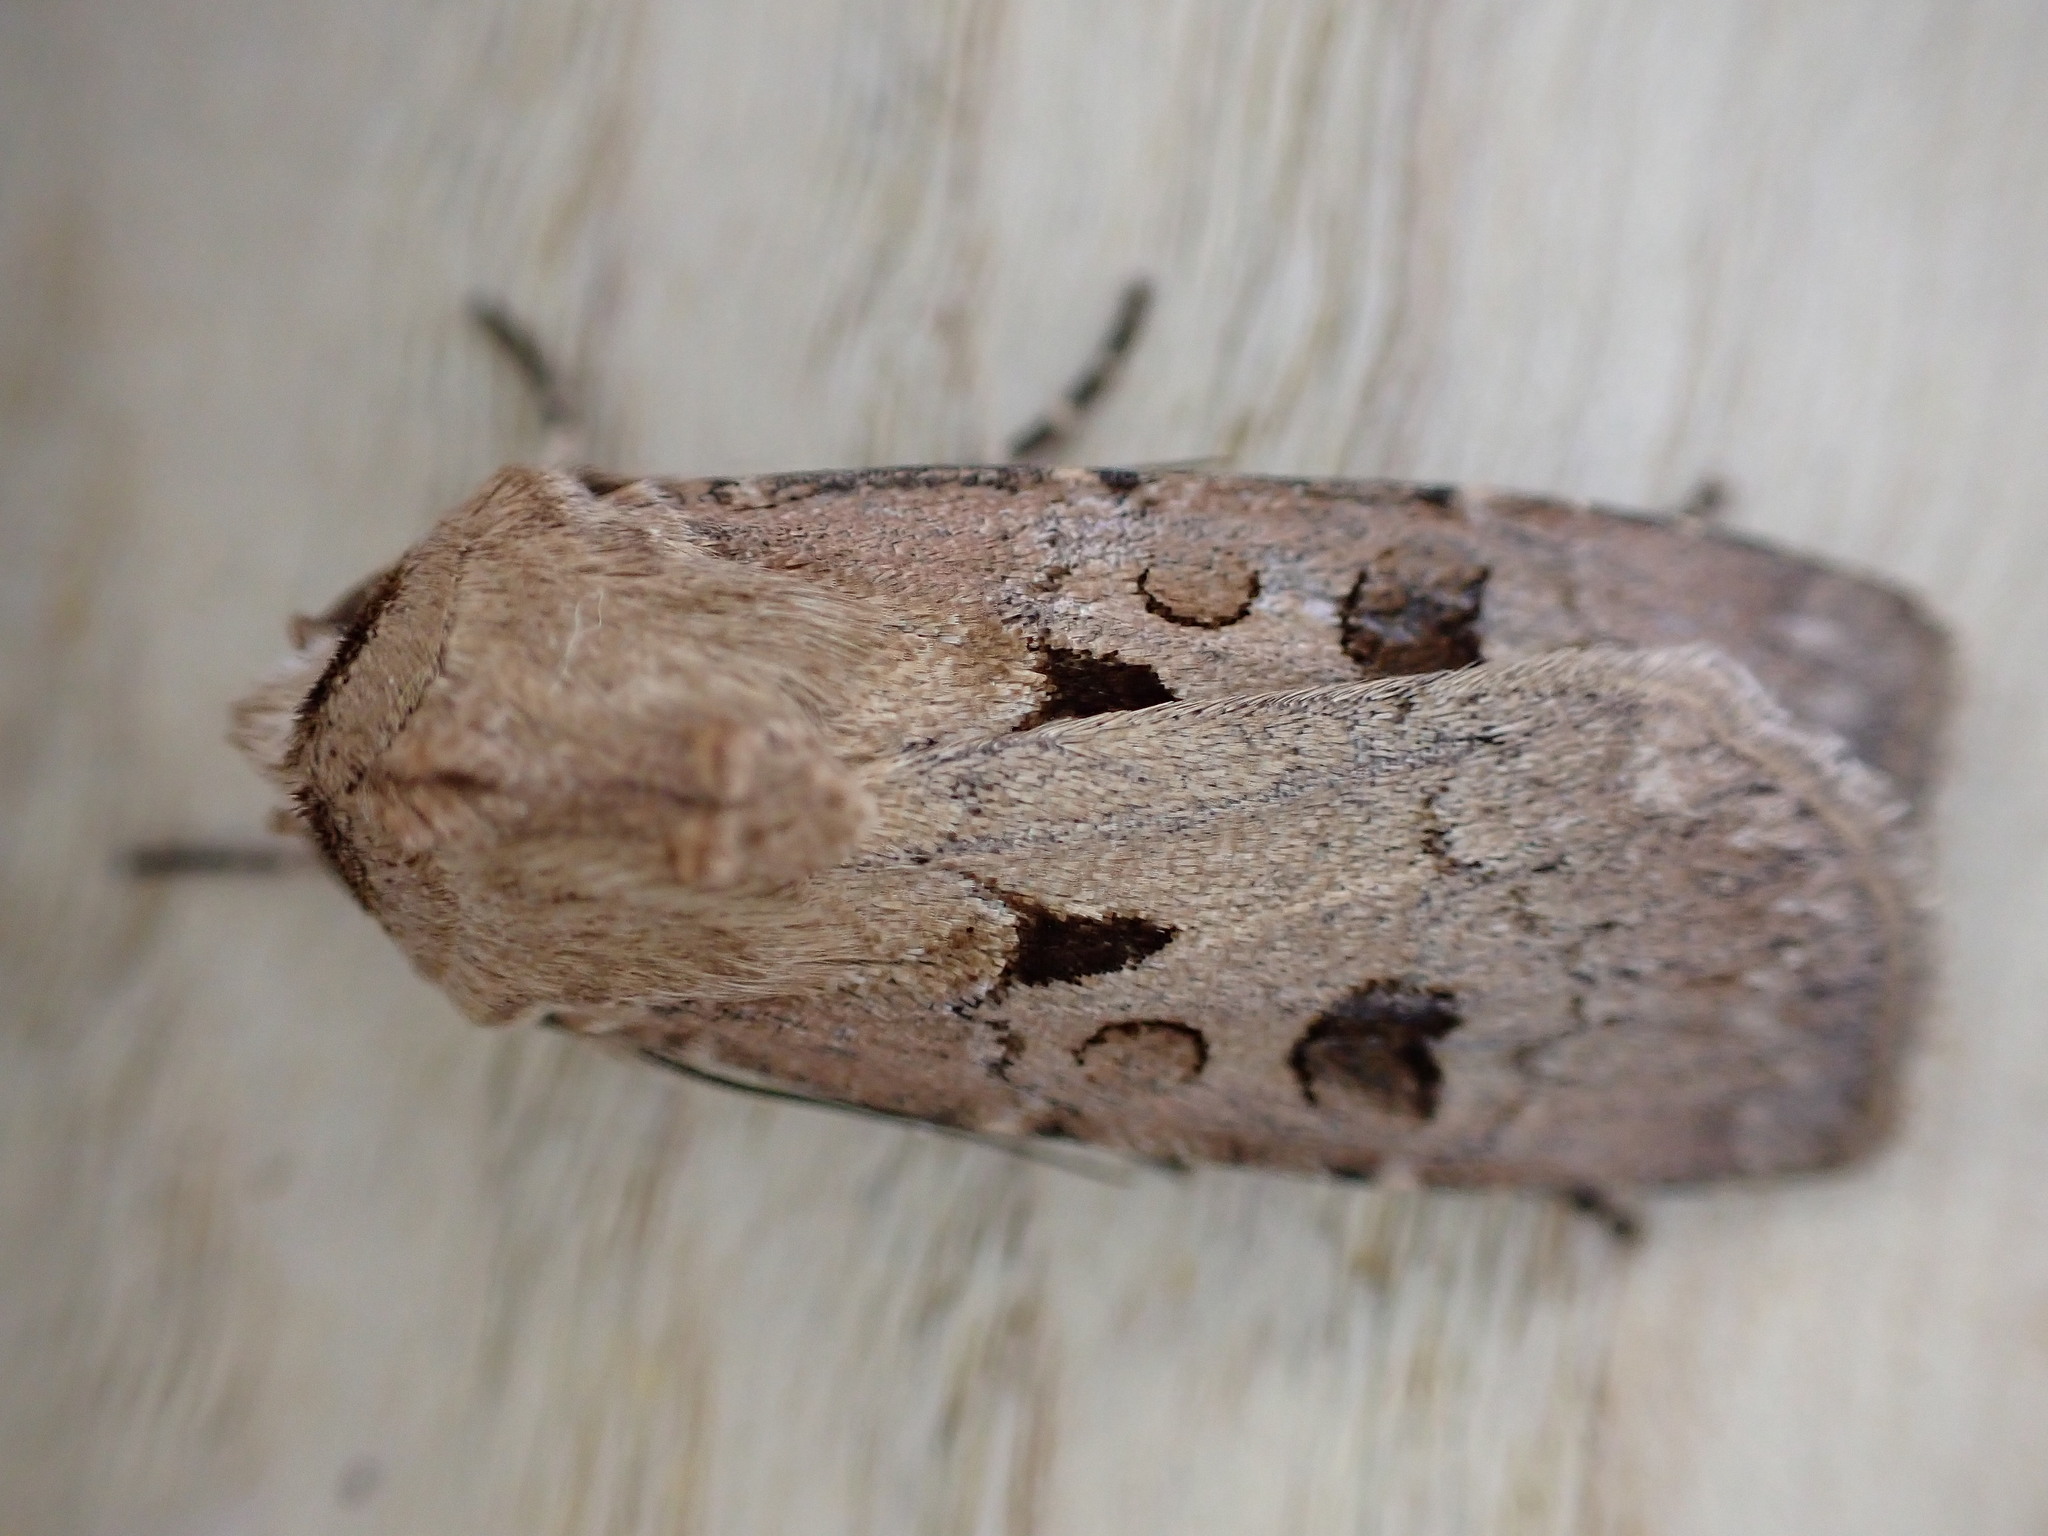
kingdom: Animalia
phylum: Arthropoda
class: Insecta
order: Lepidoptera
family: Noctuidae
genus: Agrotis
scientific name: Agrotis exclamationis
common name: Heart and dart
